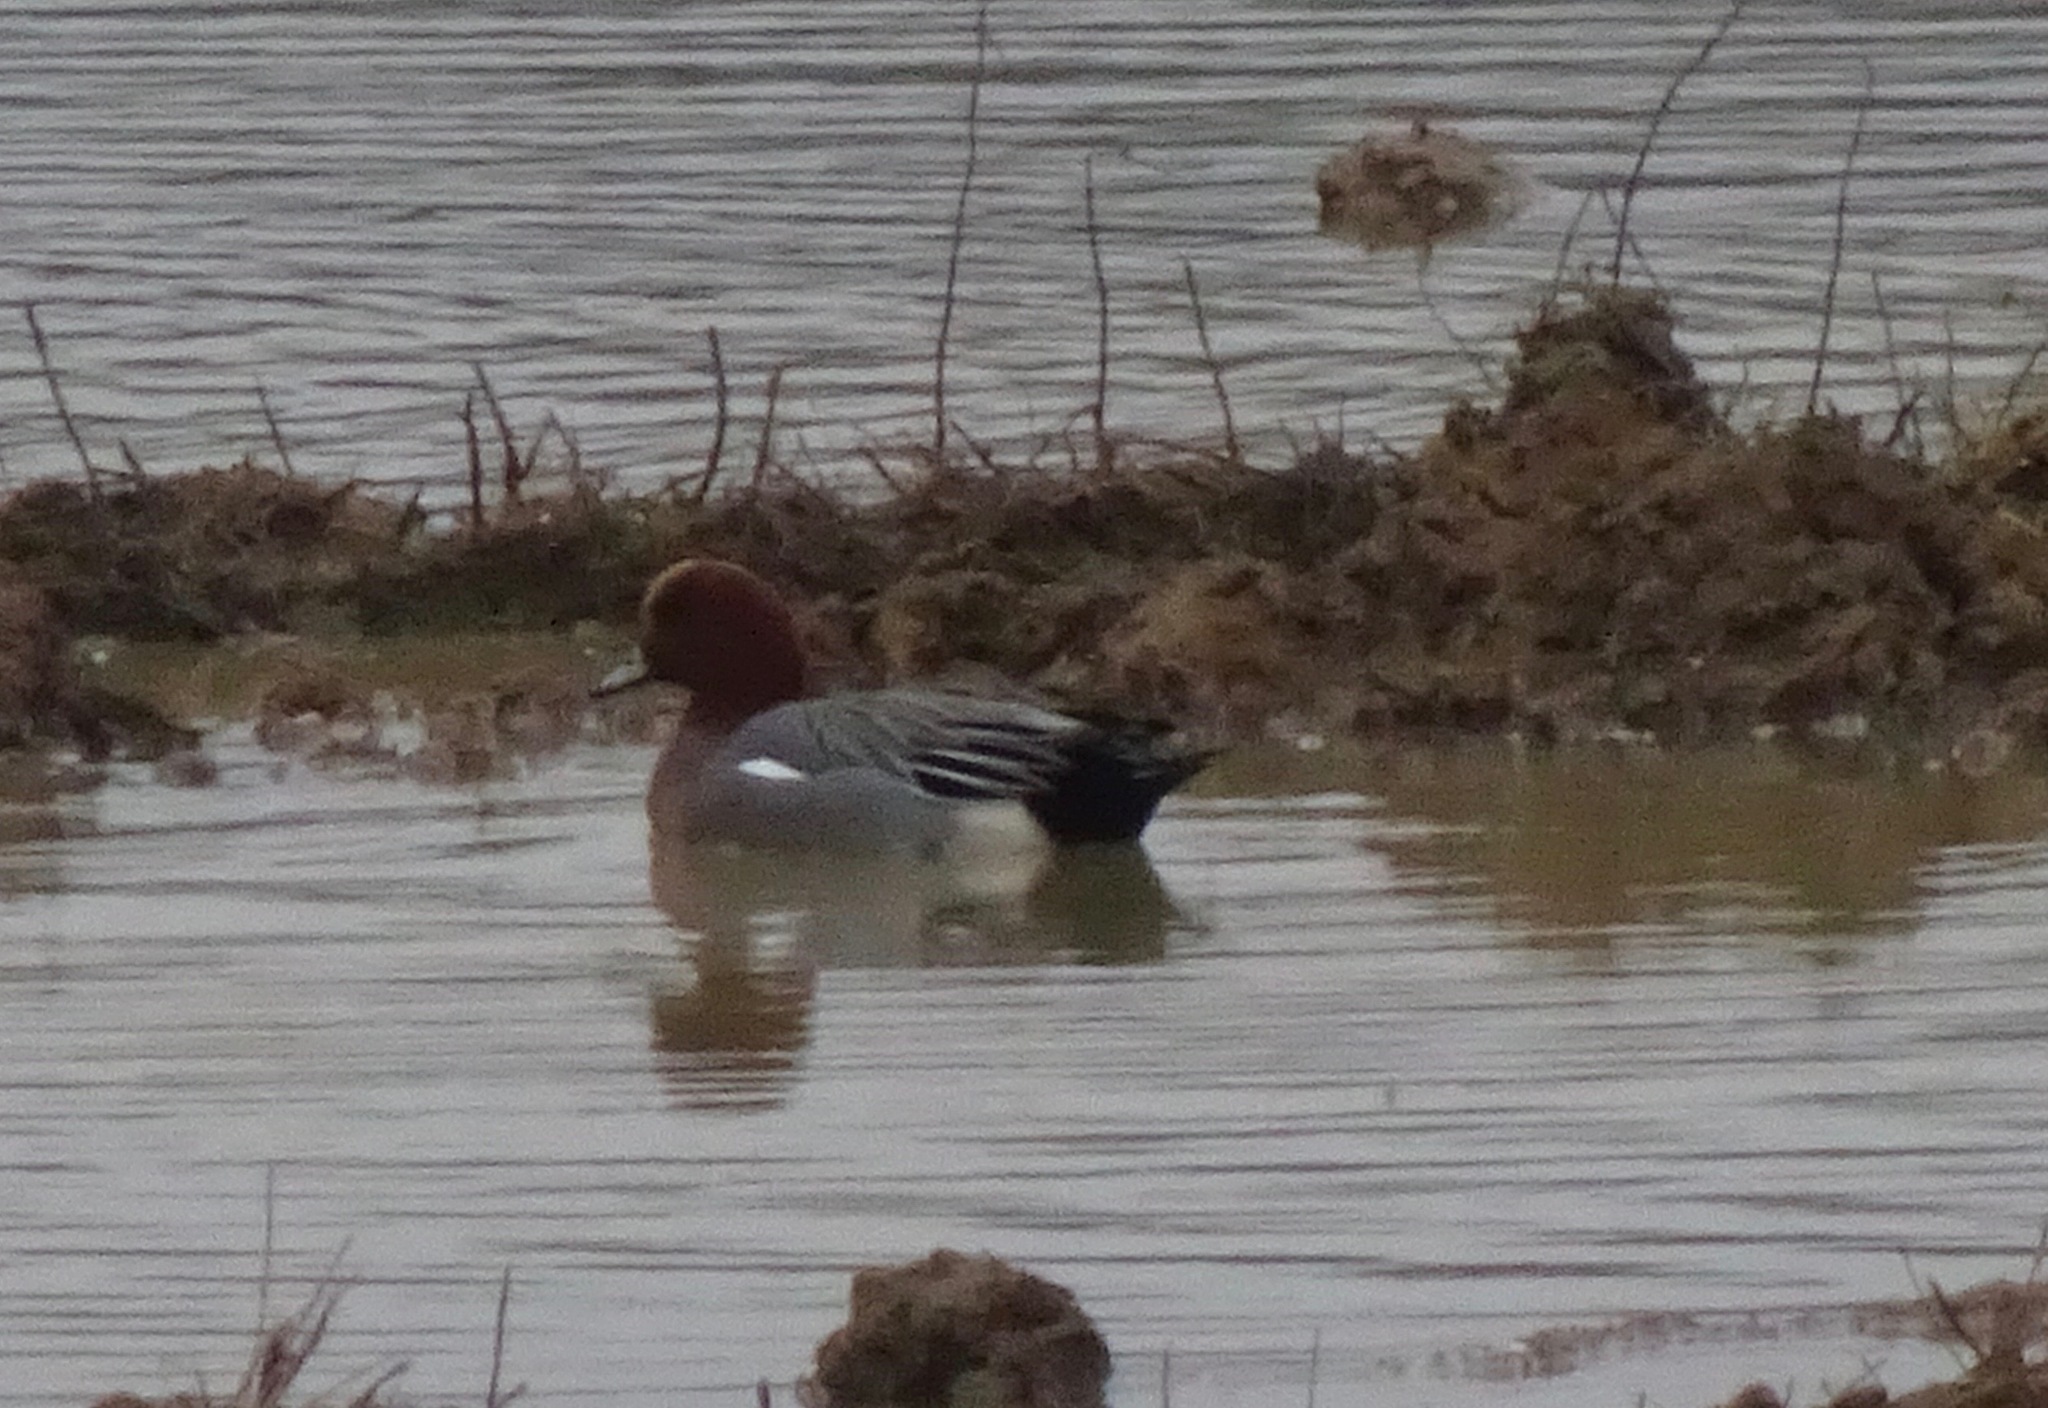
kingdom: Animalia
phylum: Chordata
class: Aves
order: Anseriformes
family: Anatidae
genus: Mareca
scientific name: Mareca penelope
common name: Eurasian wigeon
